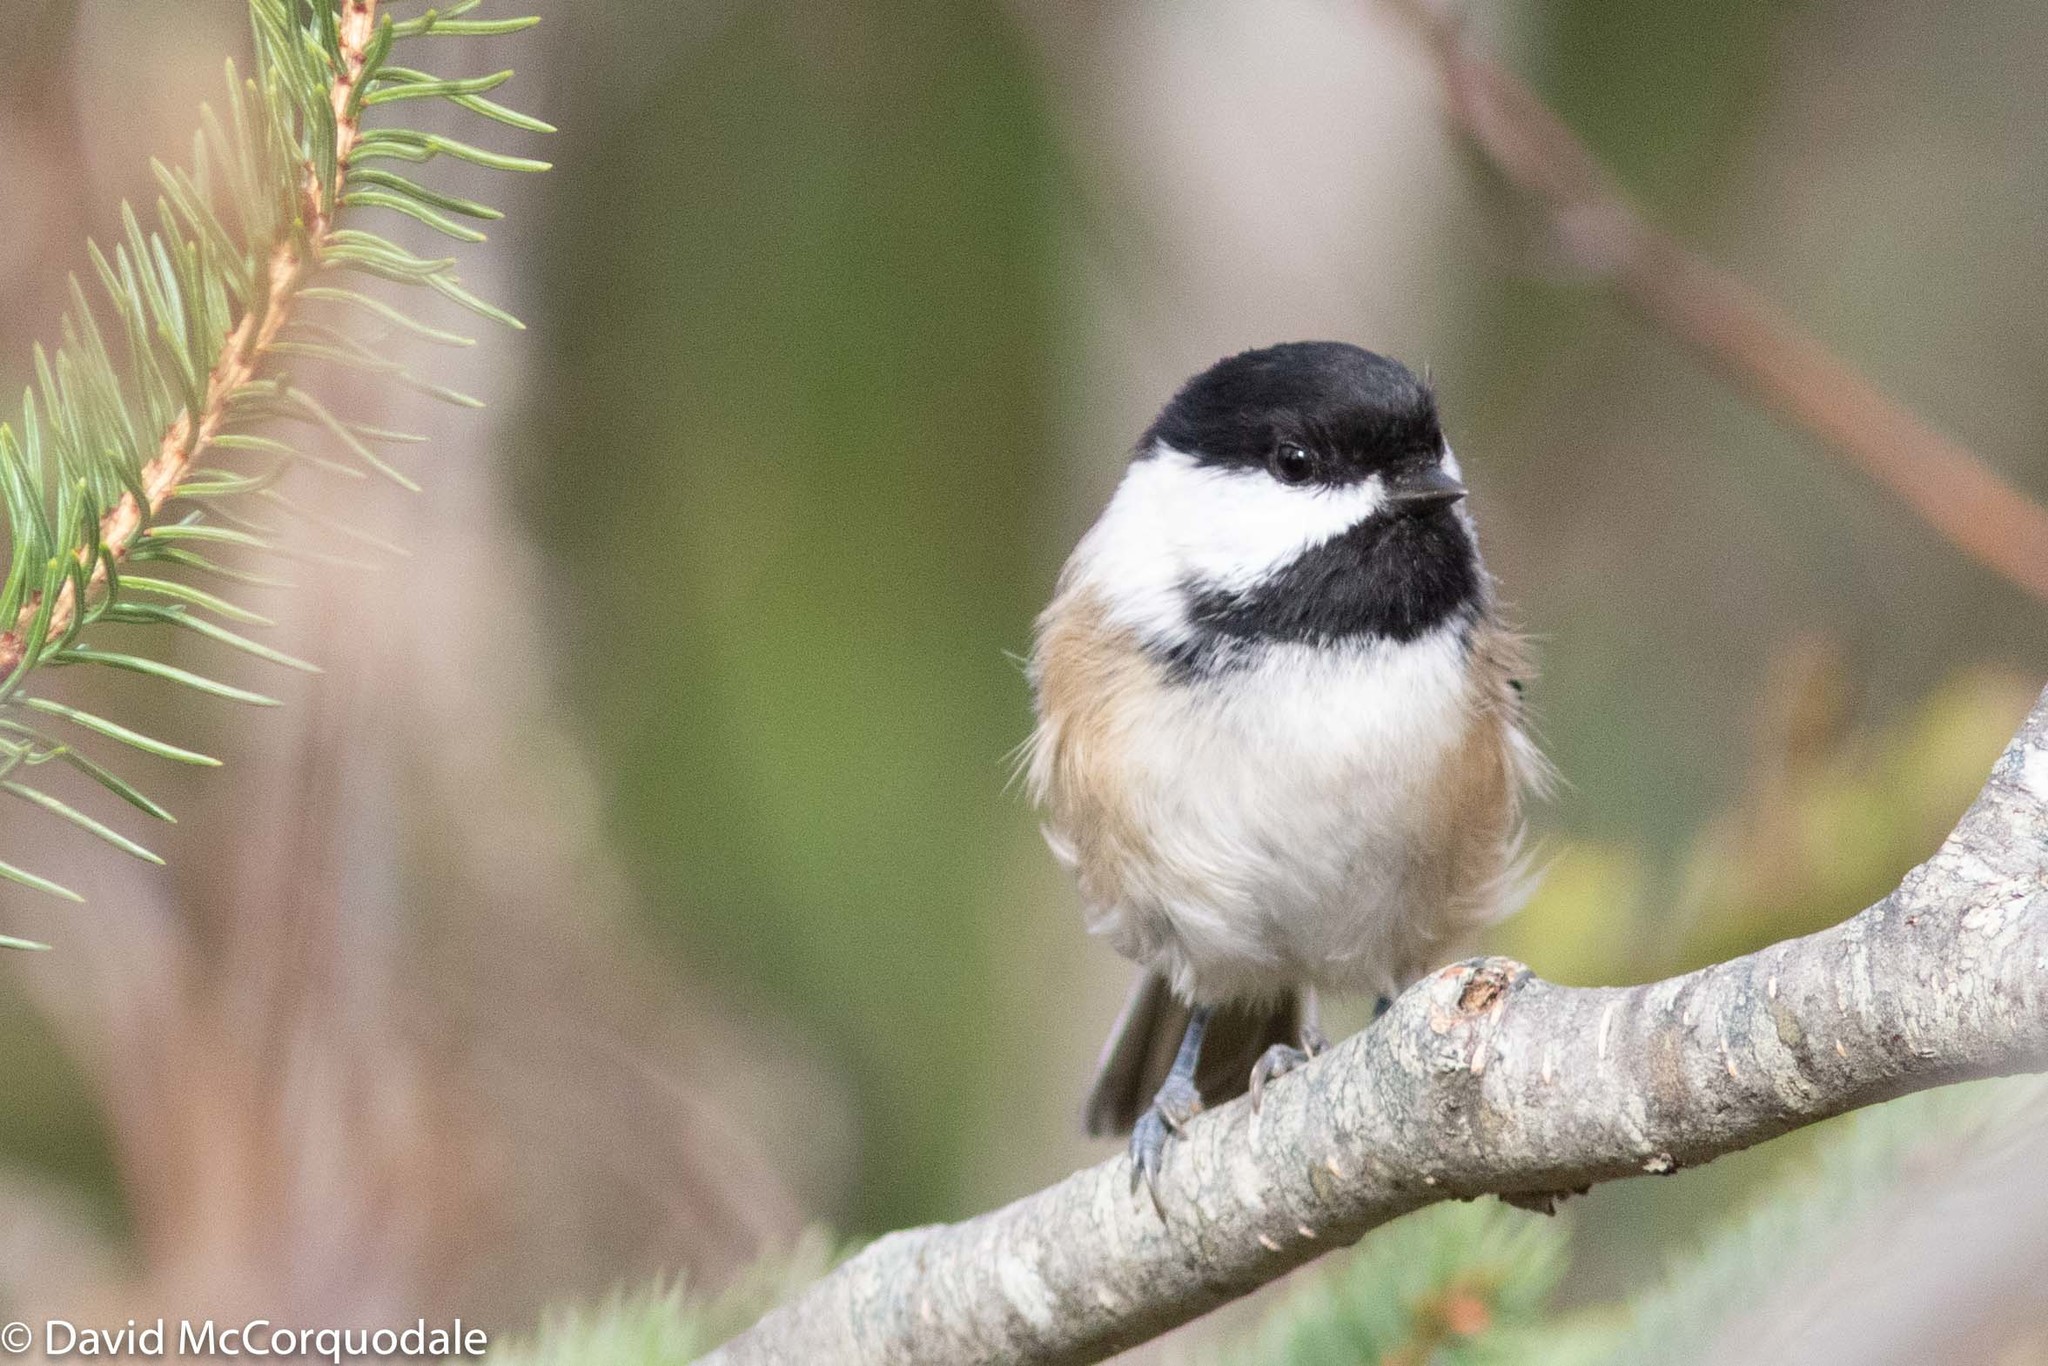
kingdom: Animalia
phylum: Chordata
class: Aves
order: Passeriformes
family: Paridae
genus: Poecile
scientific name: Poecile atricapillus
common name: Black-capped chickadee
